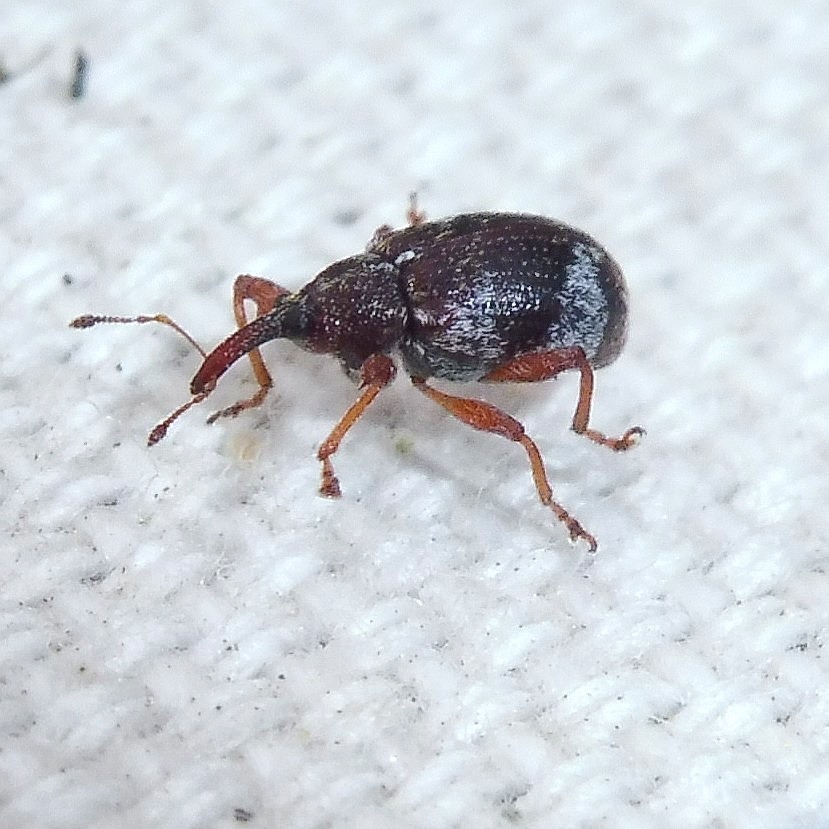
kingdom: Animalia
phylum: Arthropoda
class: Insecta
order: Coleoptera
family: Curculionidae
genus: Anthonomus
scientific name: Anthonomus pedicularius
